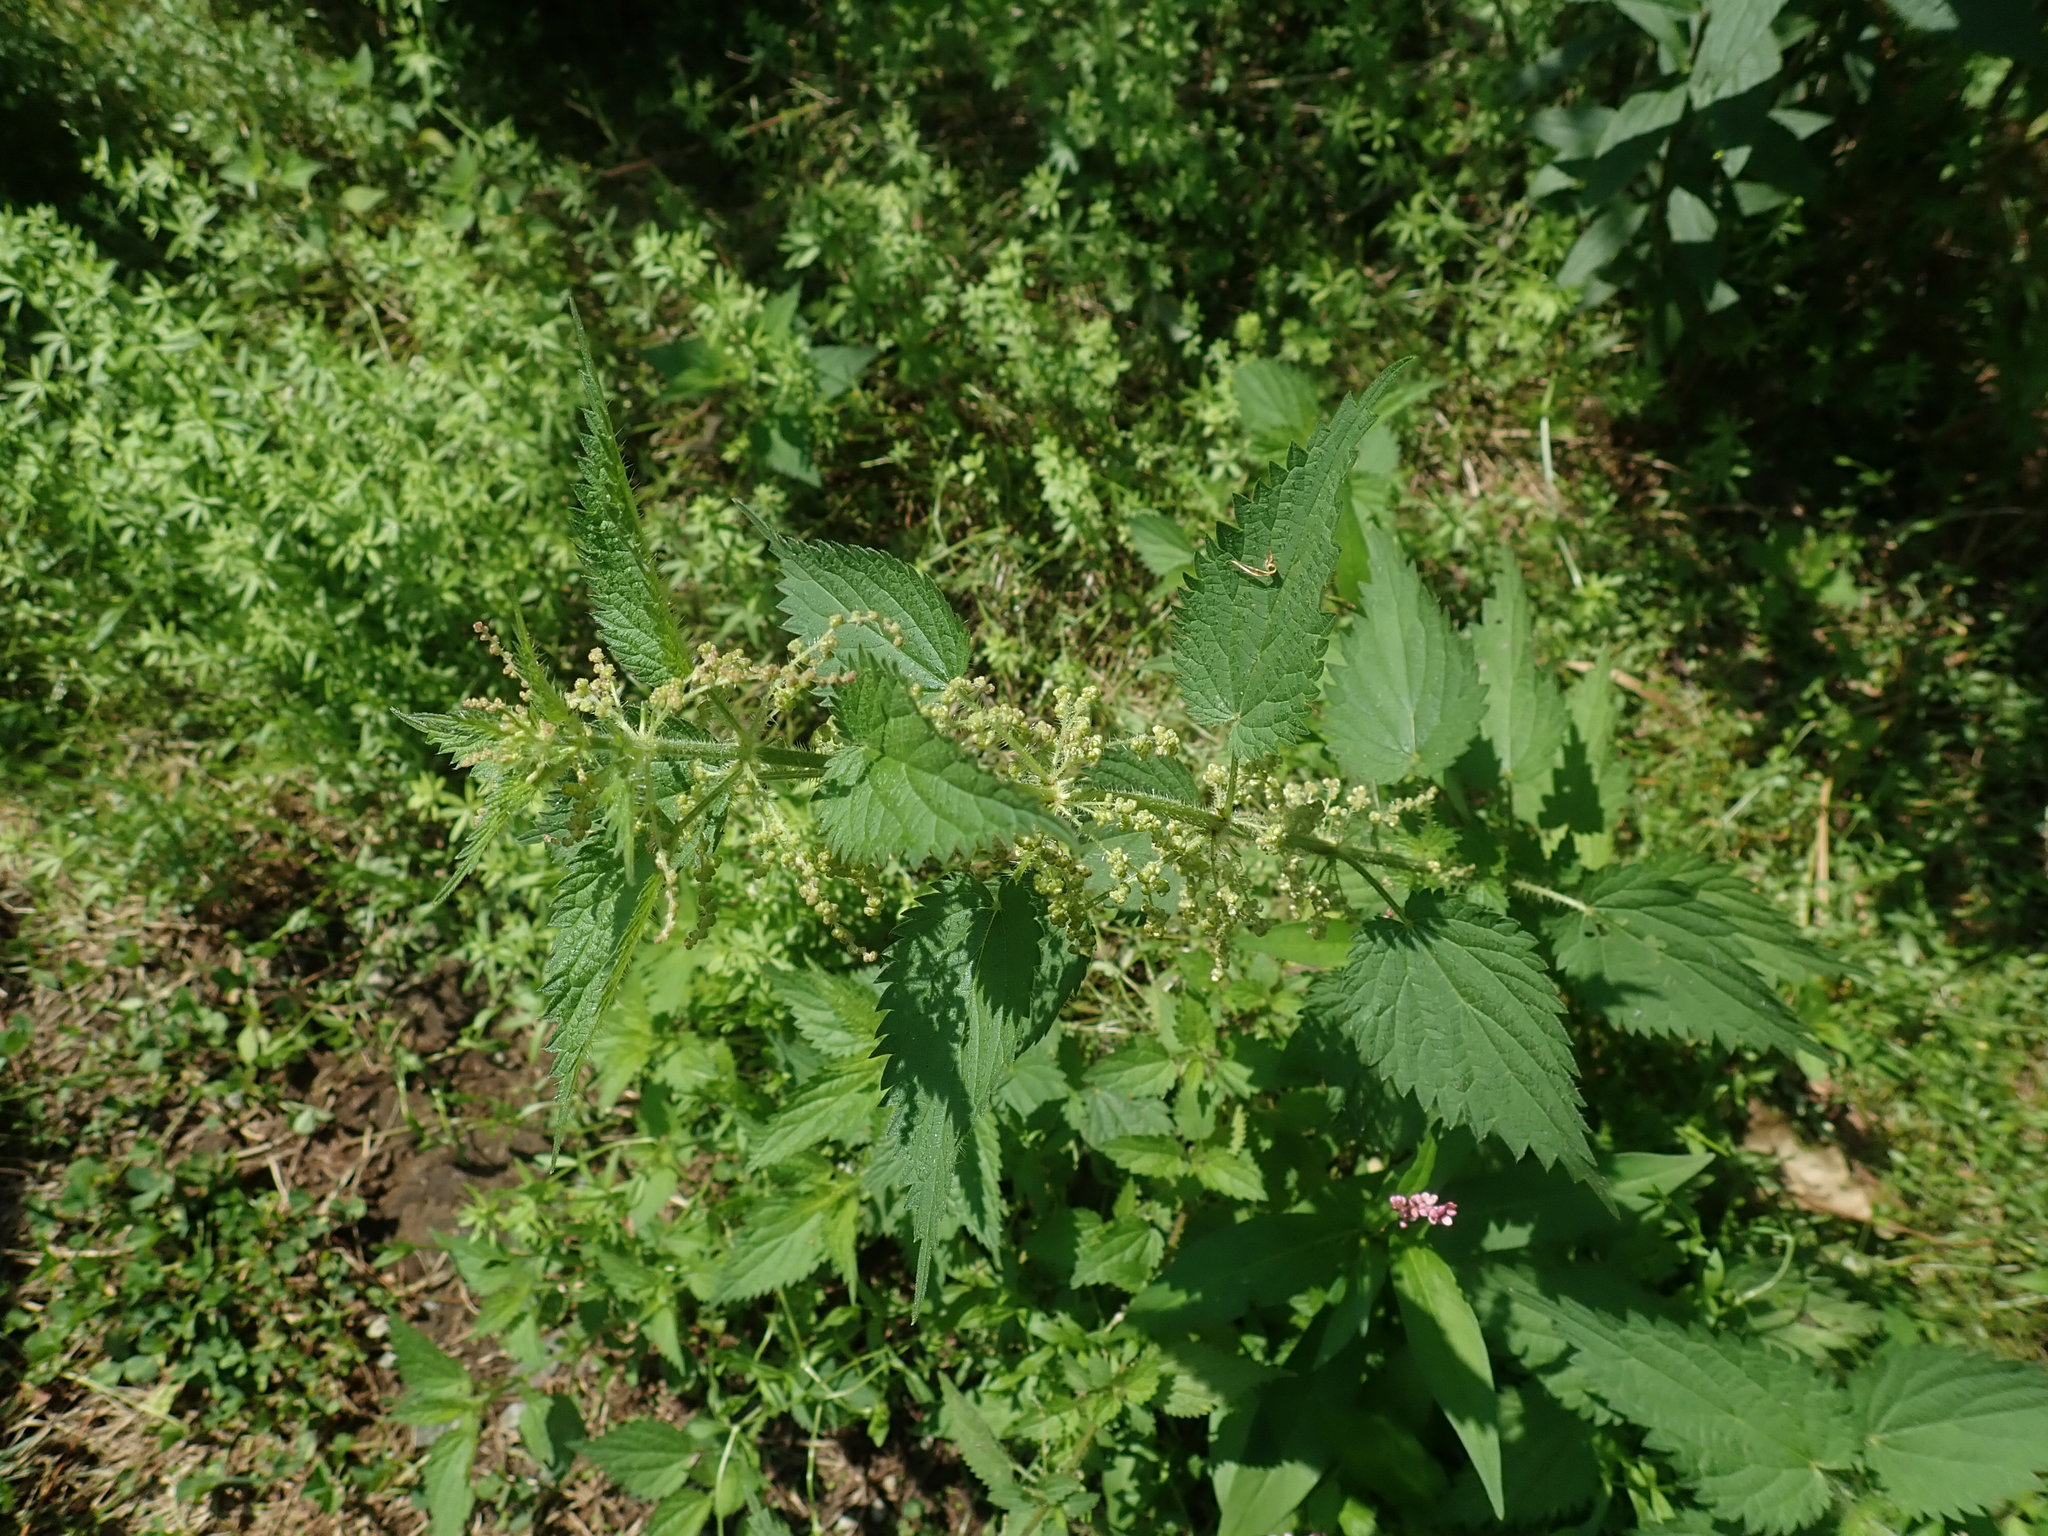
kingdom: Plantae
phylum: Tracheophyta
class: Magnoliopsida
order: Rosales
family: Urticaceae
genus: Urtica
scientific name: Urtica dioica
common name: Common nettle
